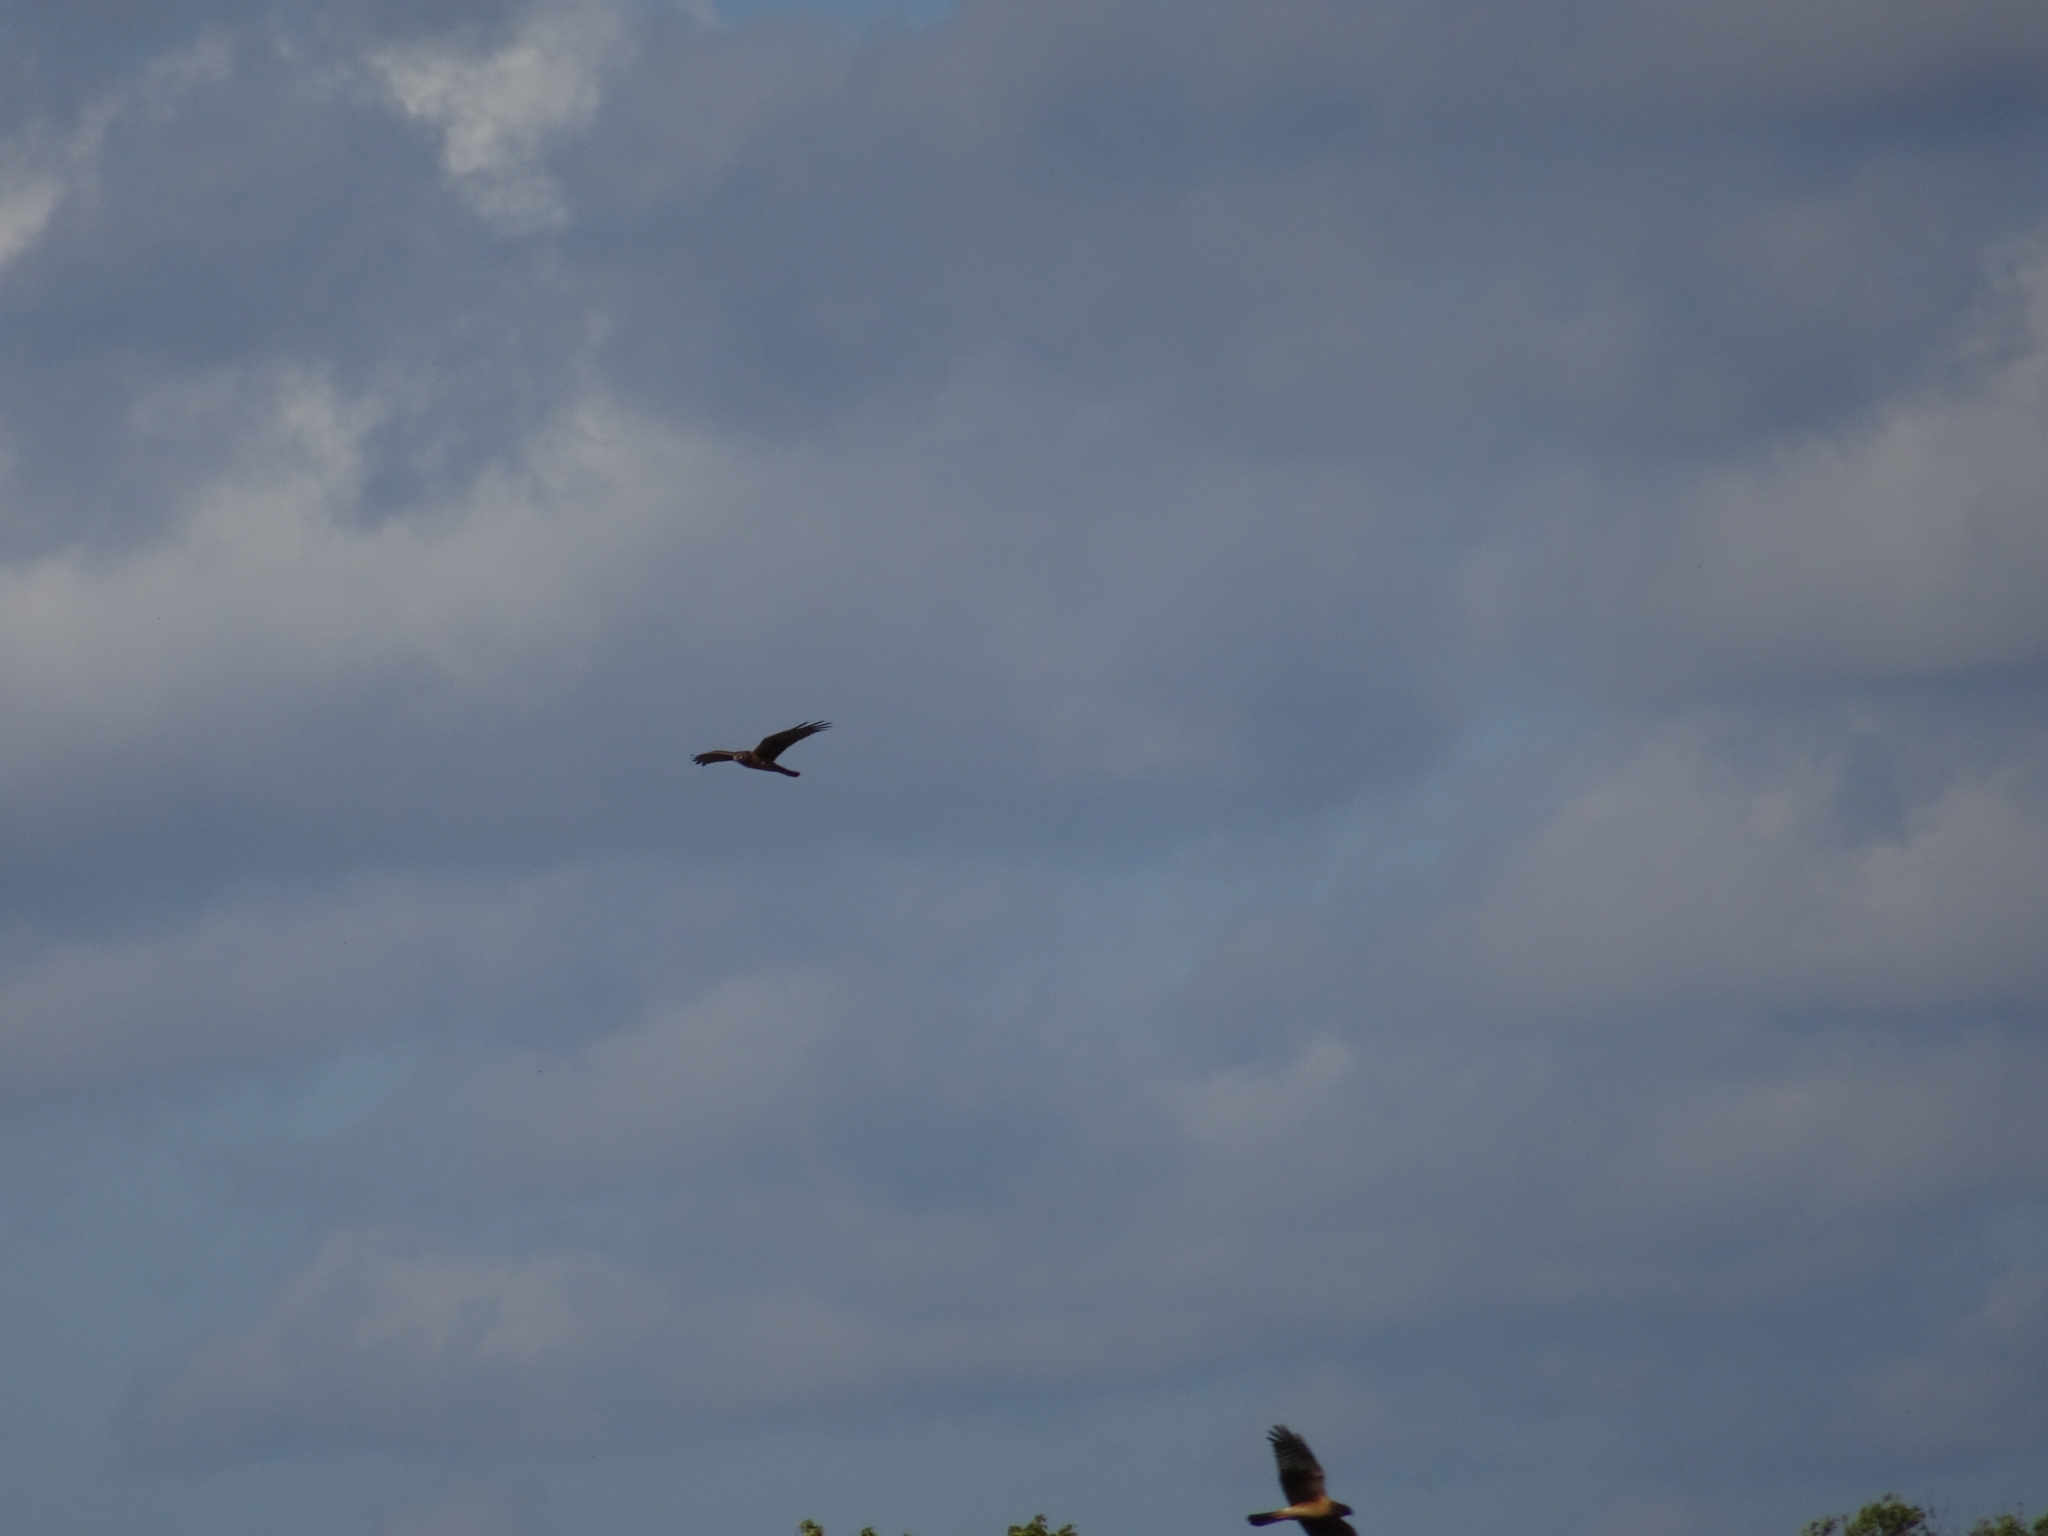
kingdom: Animalia
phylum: Chordata
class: Aves
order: Accipitriformes
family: Accipitridae
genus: Circus
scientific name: Circus cyaneus
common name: Hen harrier
